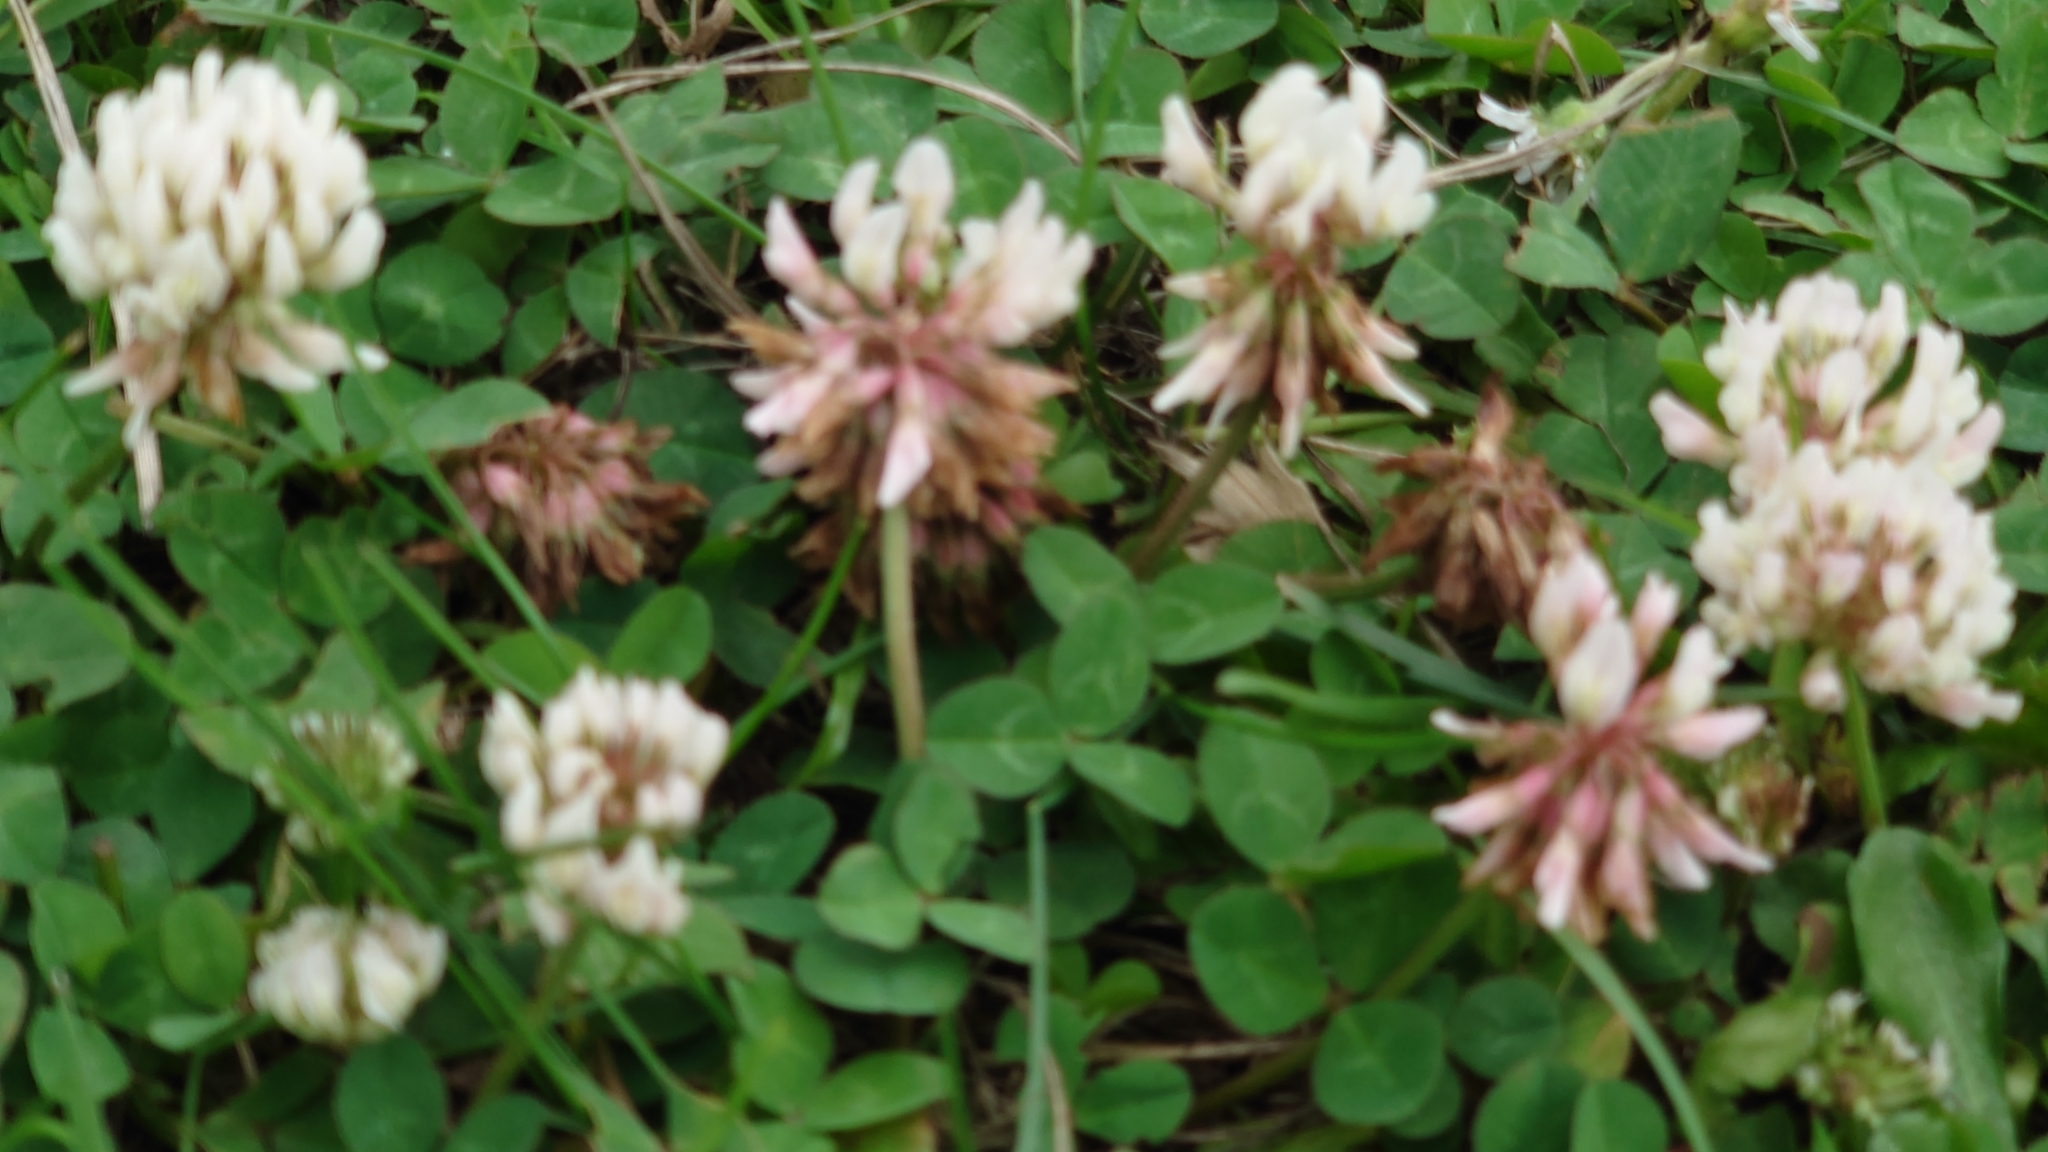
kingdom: Plantae
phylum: Tracheophyta
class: Magnoliopsida
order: Fabales
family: Fabaceae
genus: Trifolium
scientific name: Trifolium repens
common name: White clover
